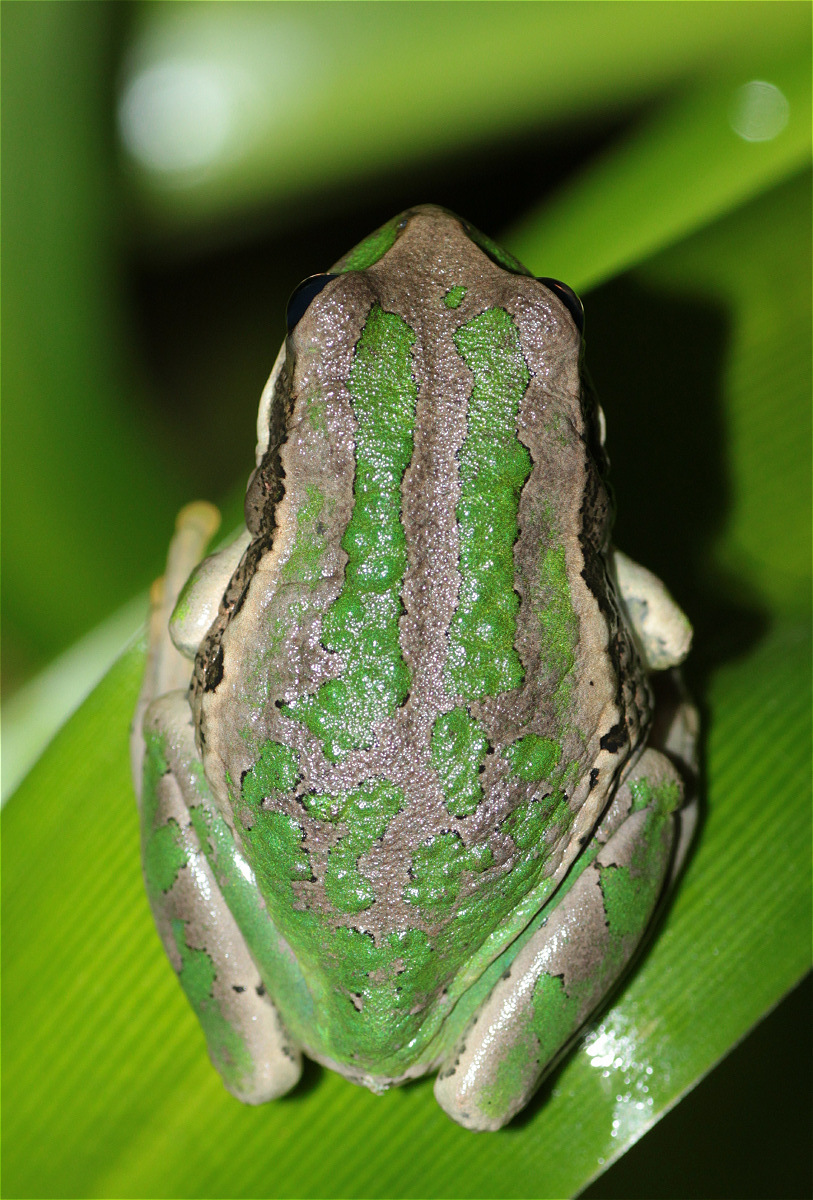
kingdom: Animalia
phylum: Chordata
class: Amphibia
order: Anura
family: Hemiphractidae
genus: Gastrotheca
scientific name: Gastrotheca cuencana
